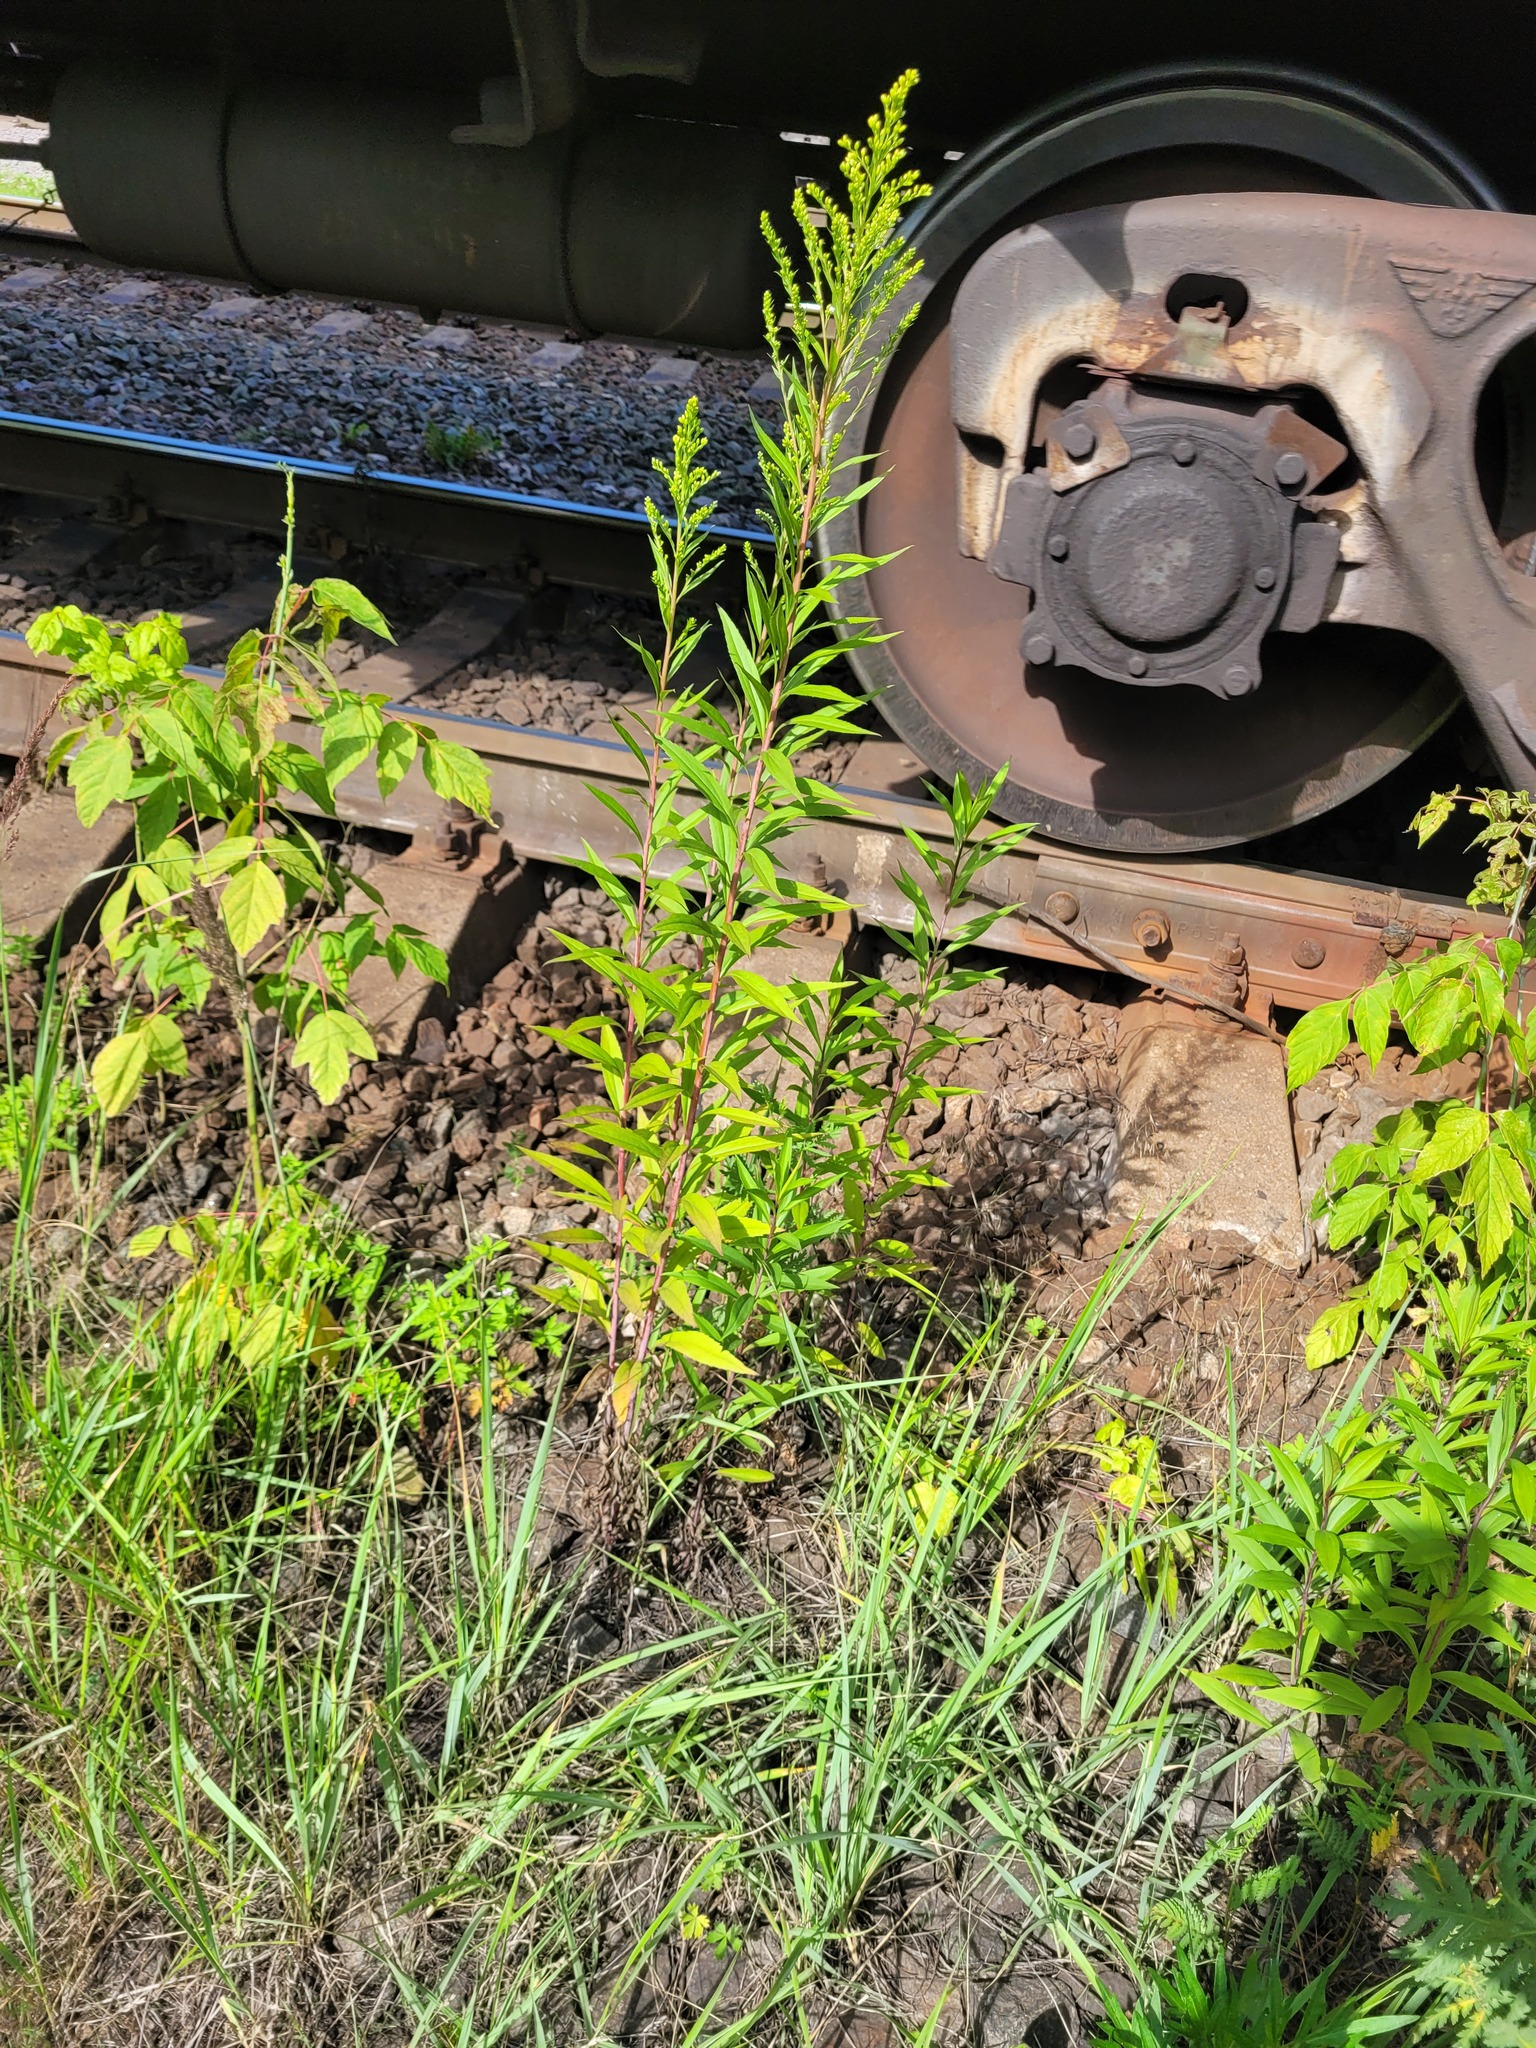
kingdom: Plantae
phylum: Tracheophyta
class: Magnoliopsida
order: Asterales
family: Asteraceae
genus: Solidago
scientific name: Solidago gigantea
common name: Giant goldenrod
